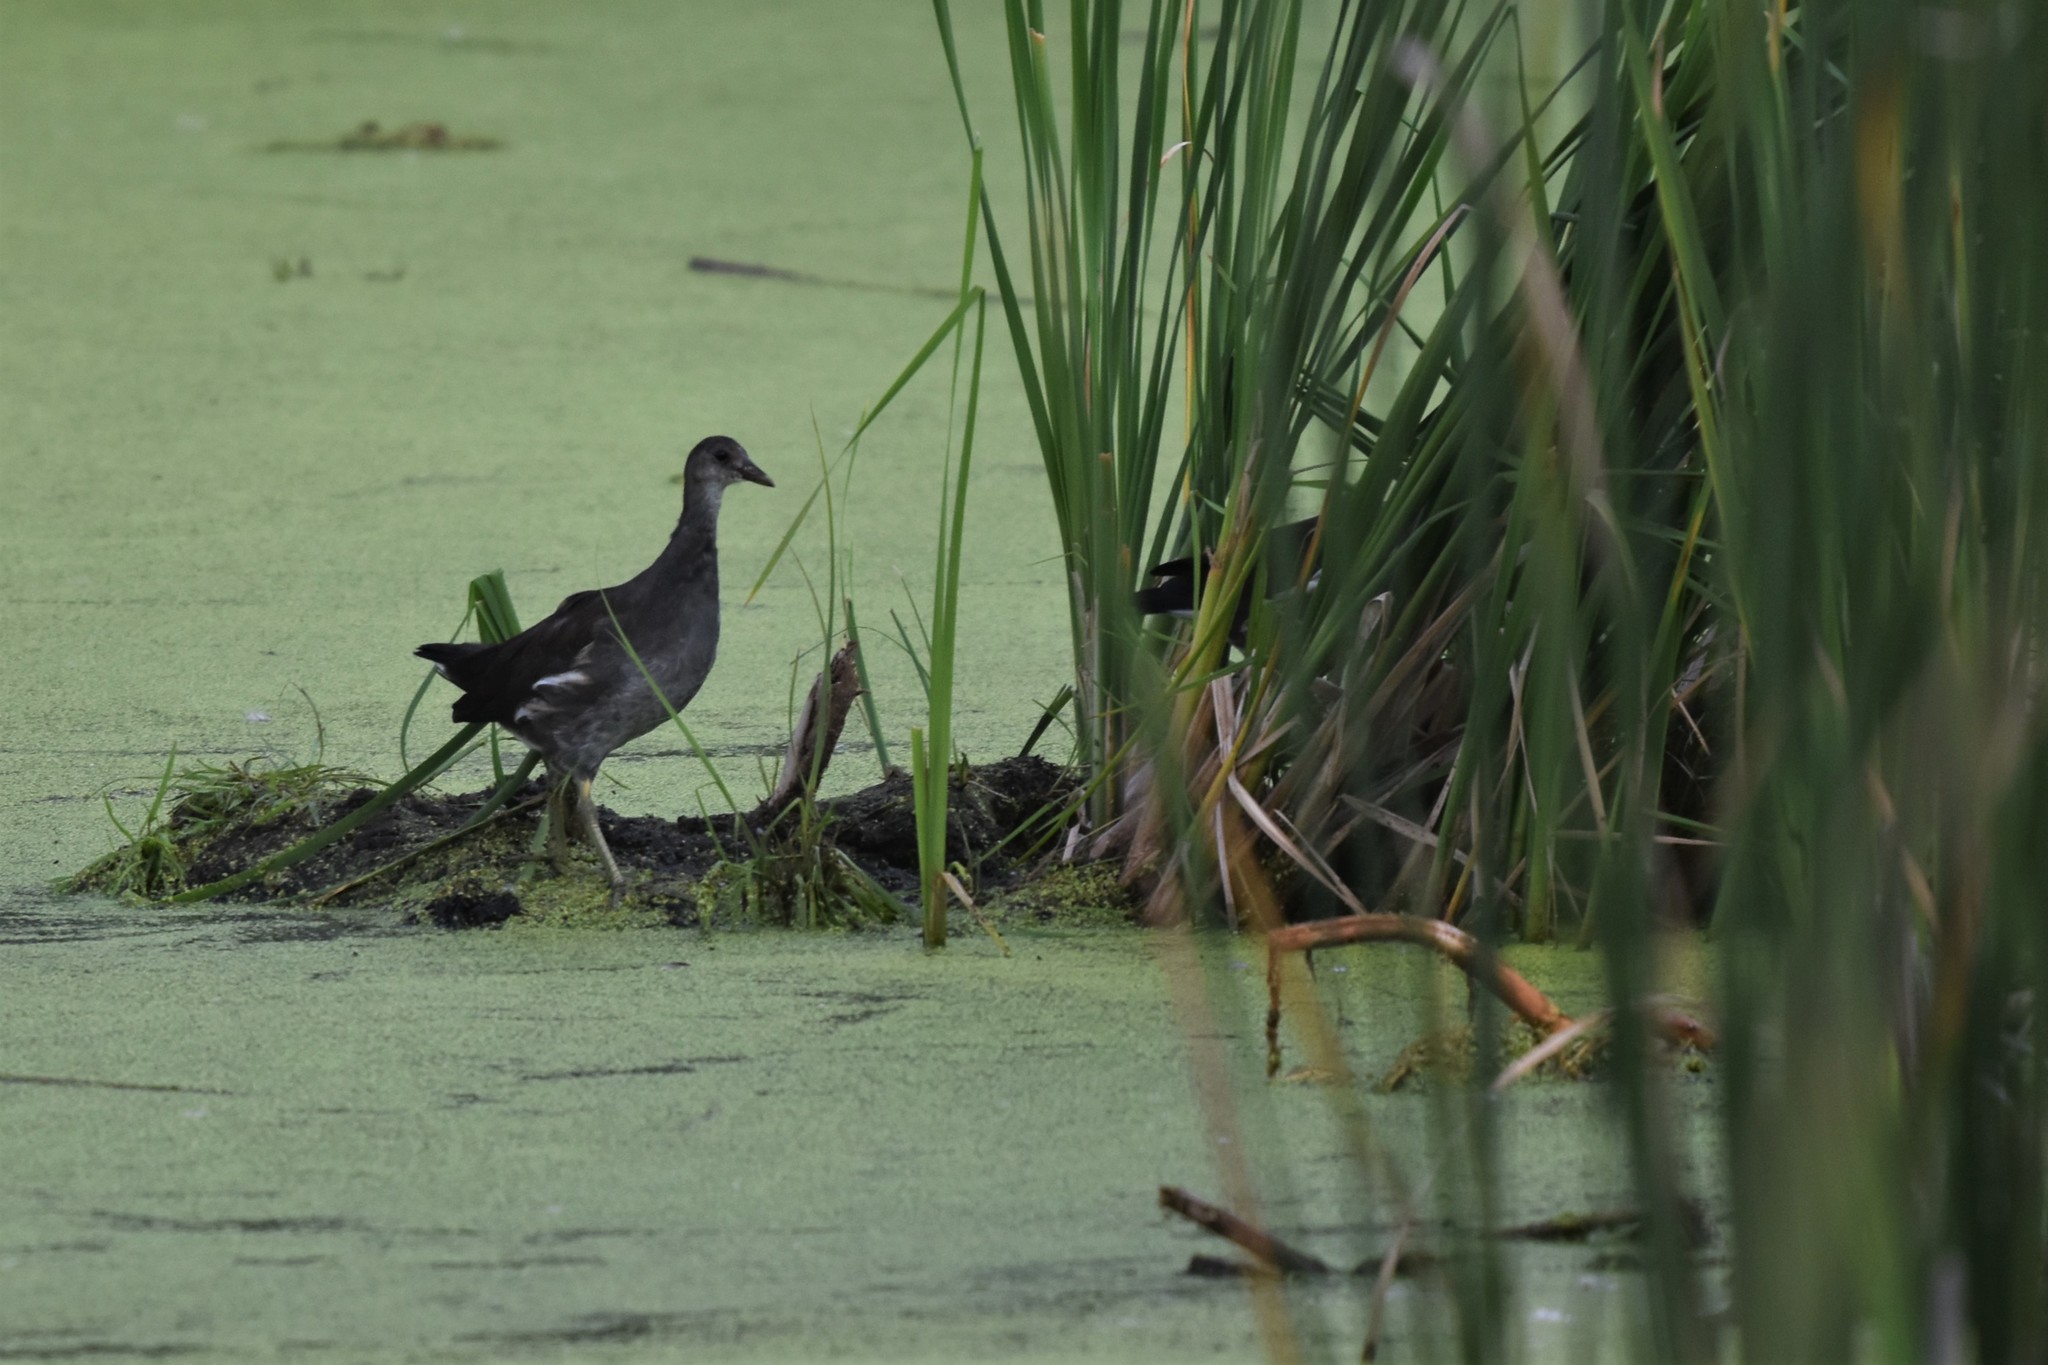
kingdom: Animalia
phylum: Chordata
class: Aves
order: Gruiformes
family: Rallidae
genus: Gallinula
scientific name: Gallinula chloropus
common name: Common moorhen
